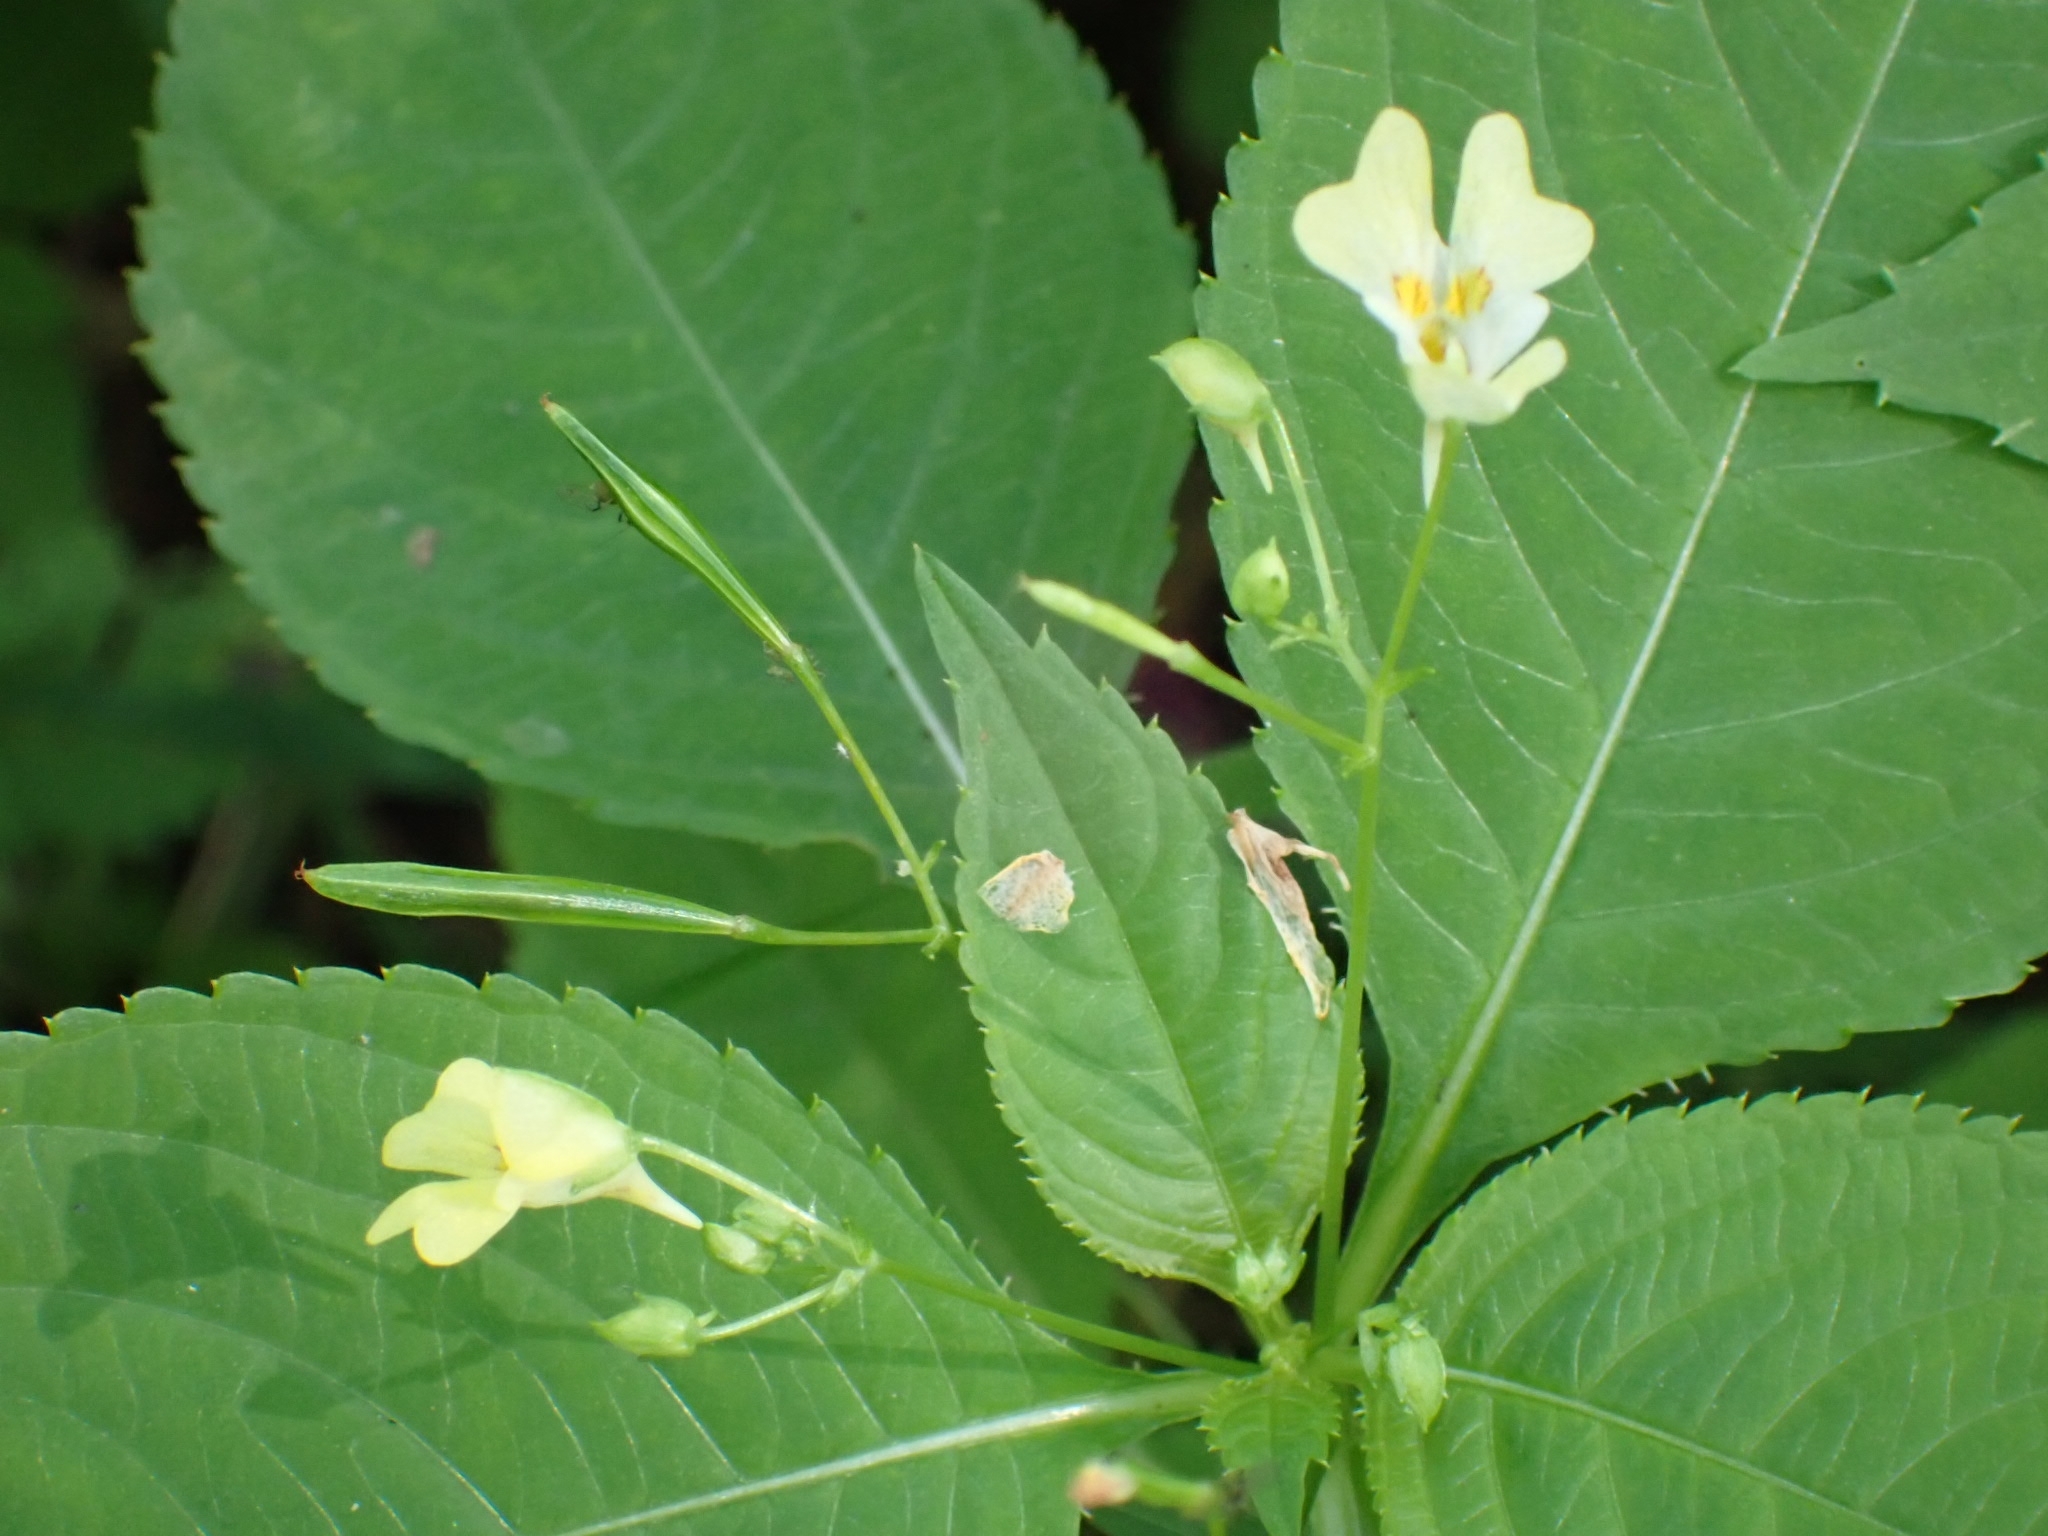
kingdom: Plantae
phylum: Tracheophyta
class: Magnoliopsida
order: Ericales
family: Balsaminaceae
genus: Impatiens
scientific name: Impatiens parviflora
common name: Small balsam
